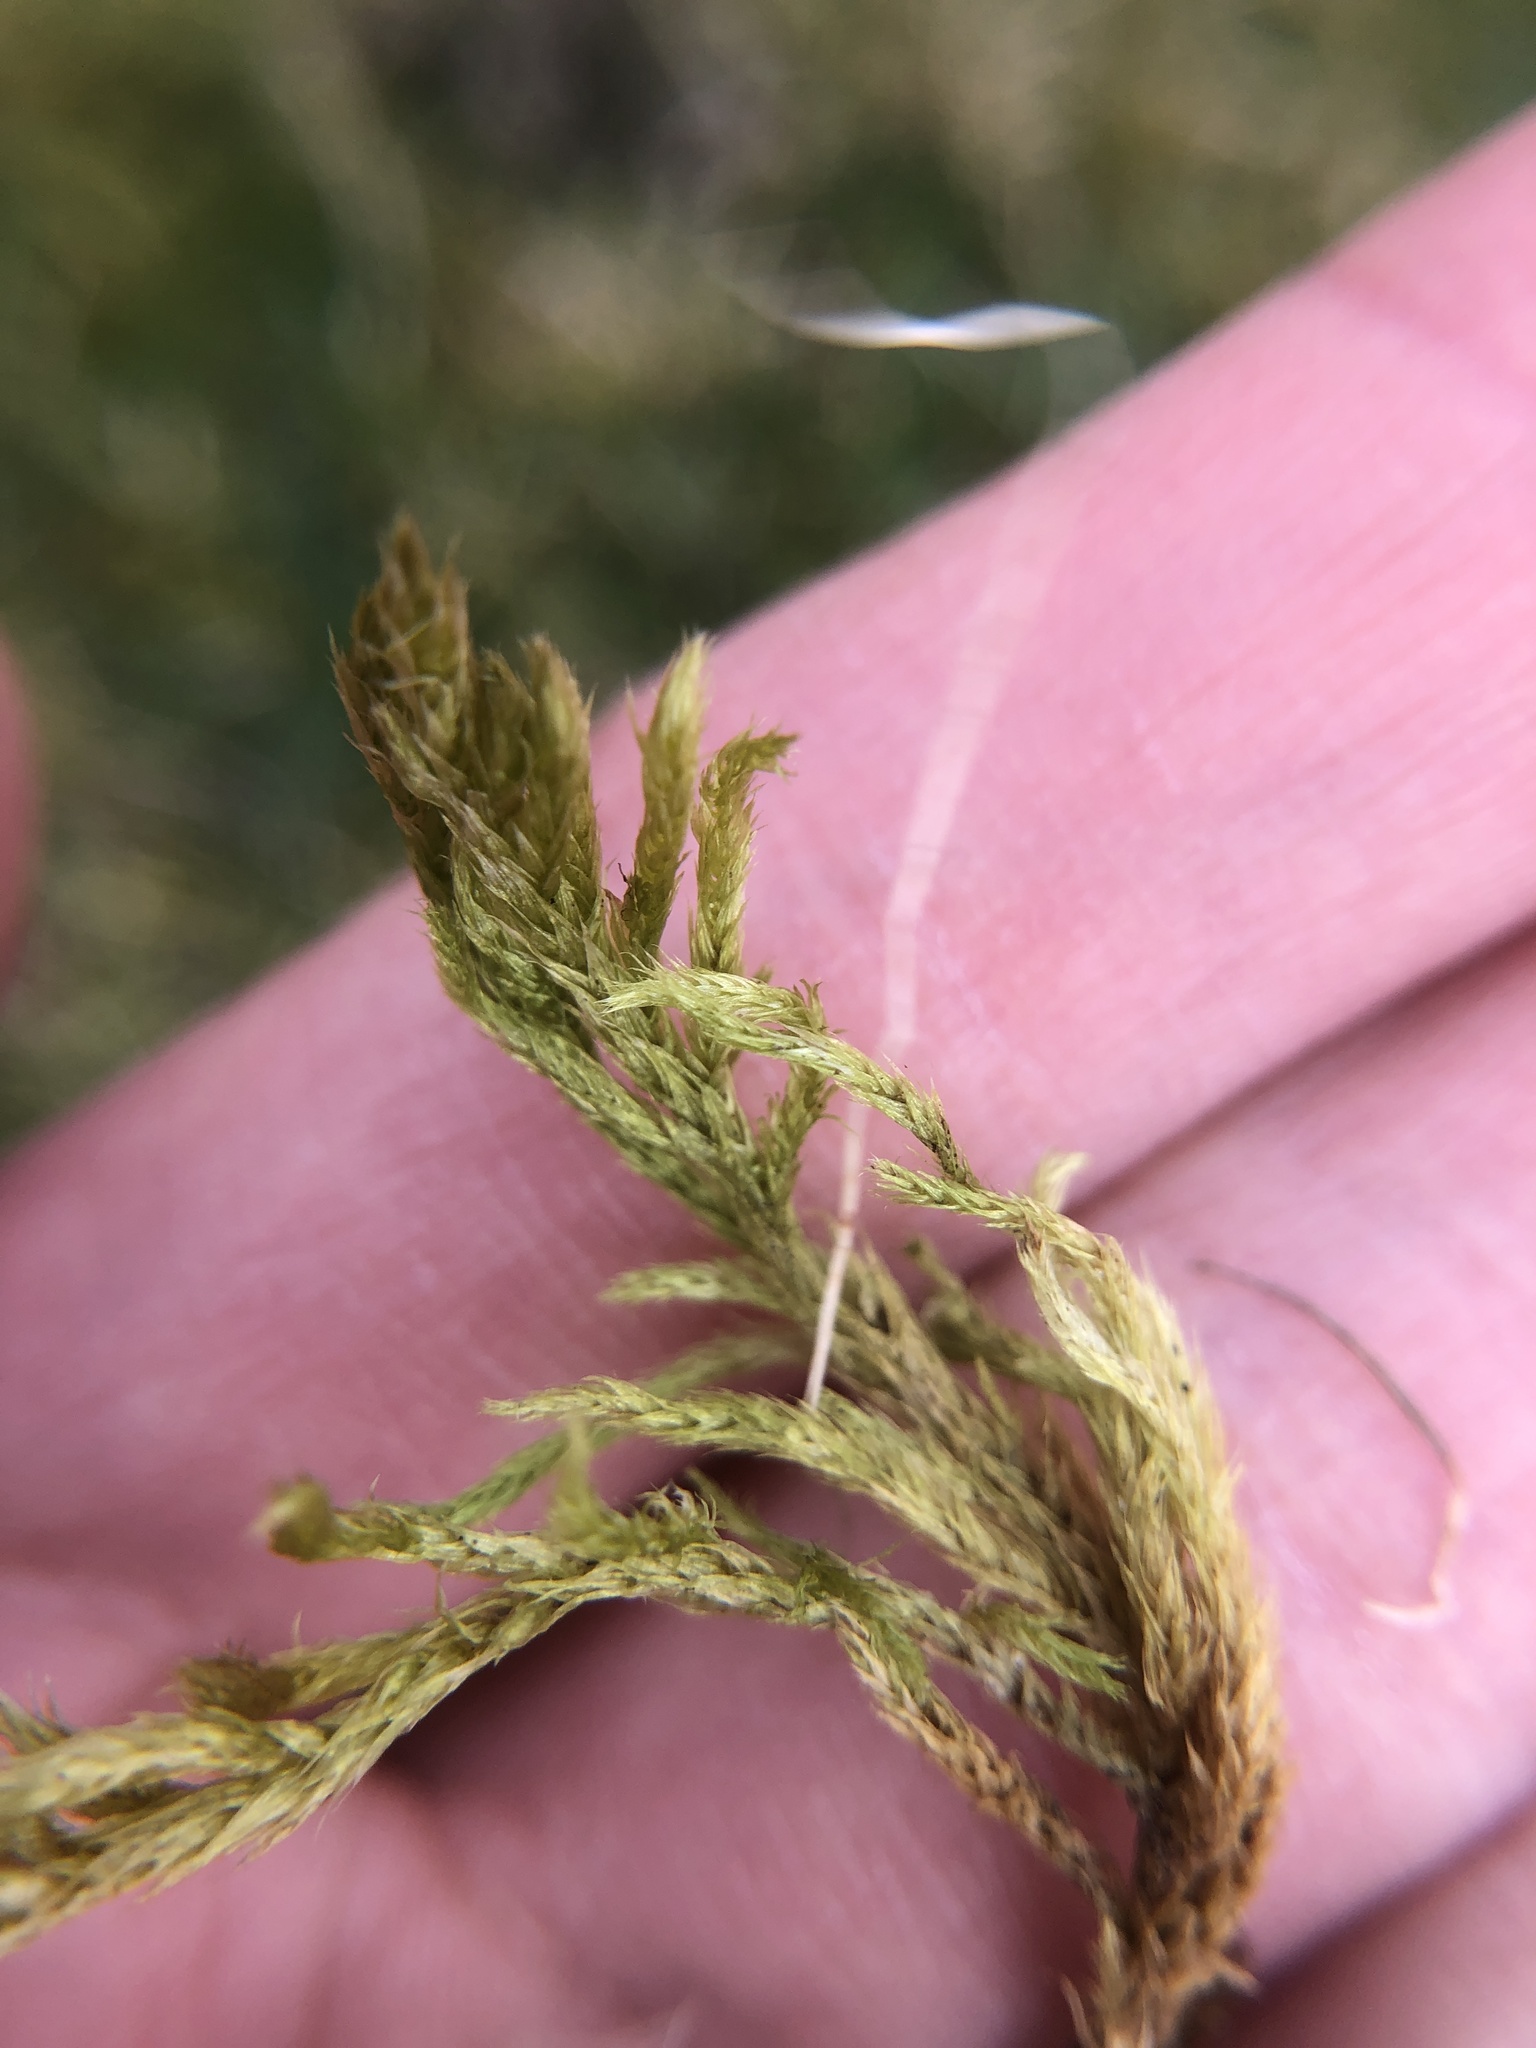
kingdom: Plantae
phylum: Bryophyta
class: Bryopsida
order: Hypnales
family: Brachytheciaceae
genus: Homalothecium
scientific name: Homalothecium lutescens
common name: Yellow feather-moss
